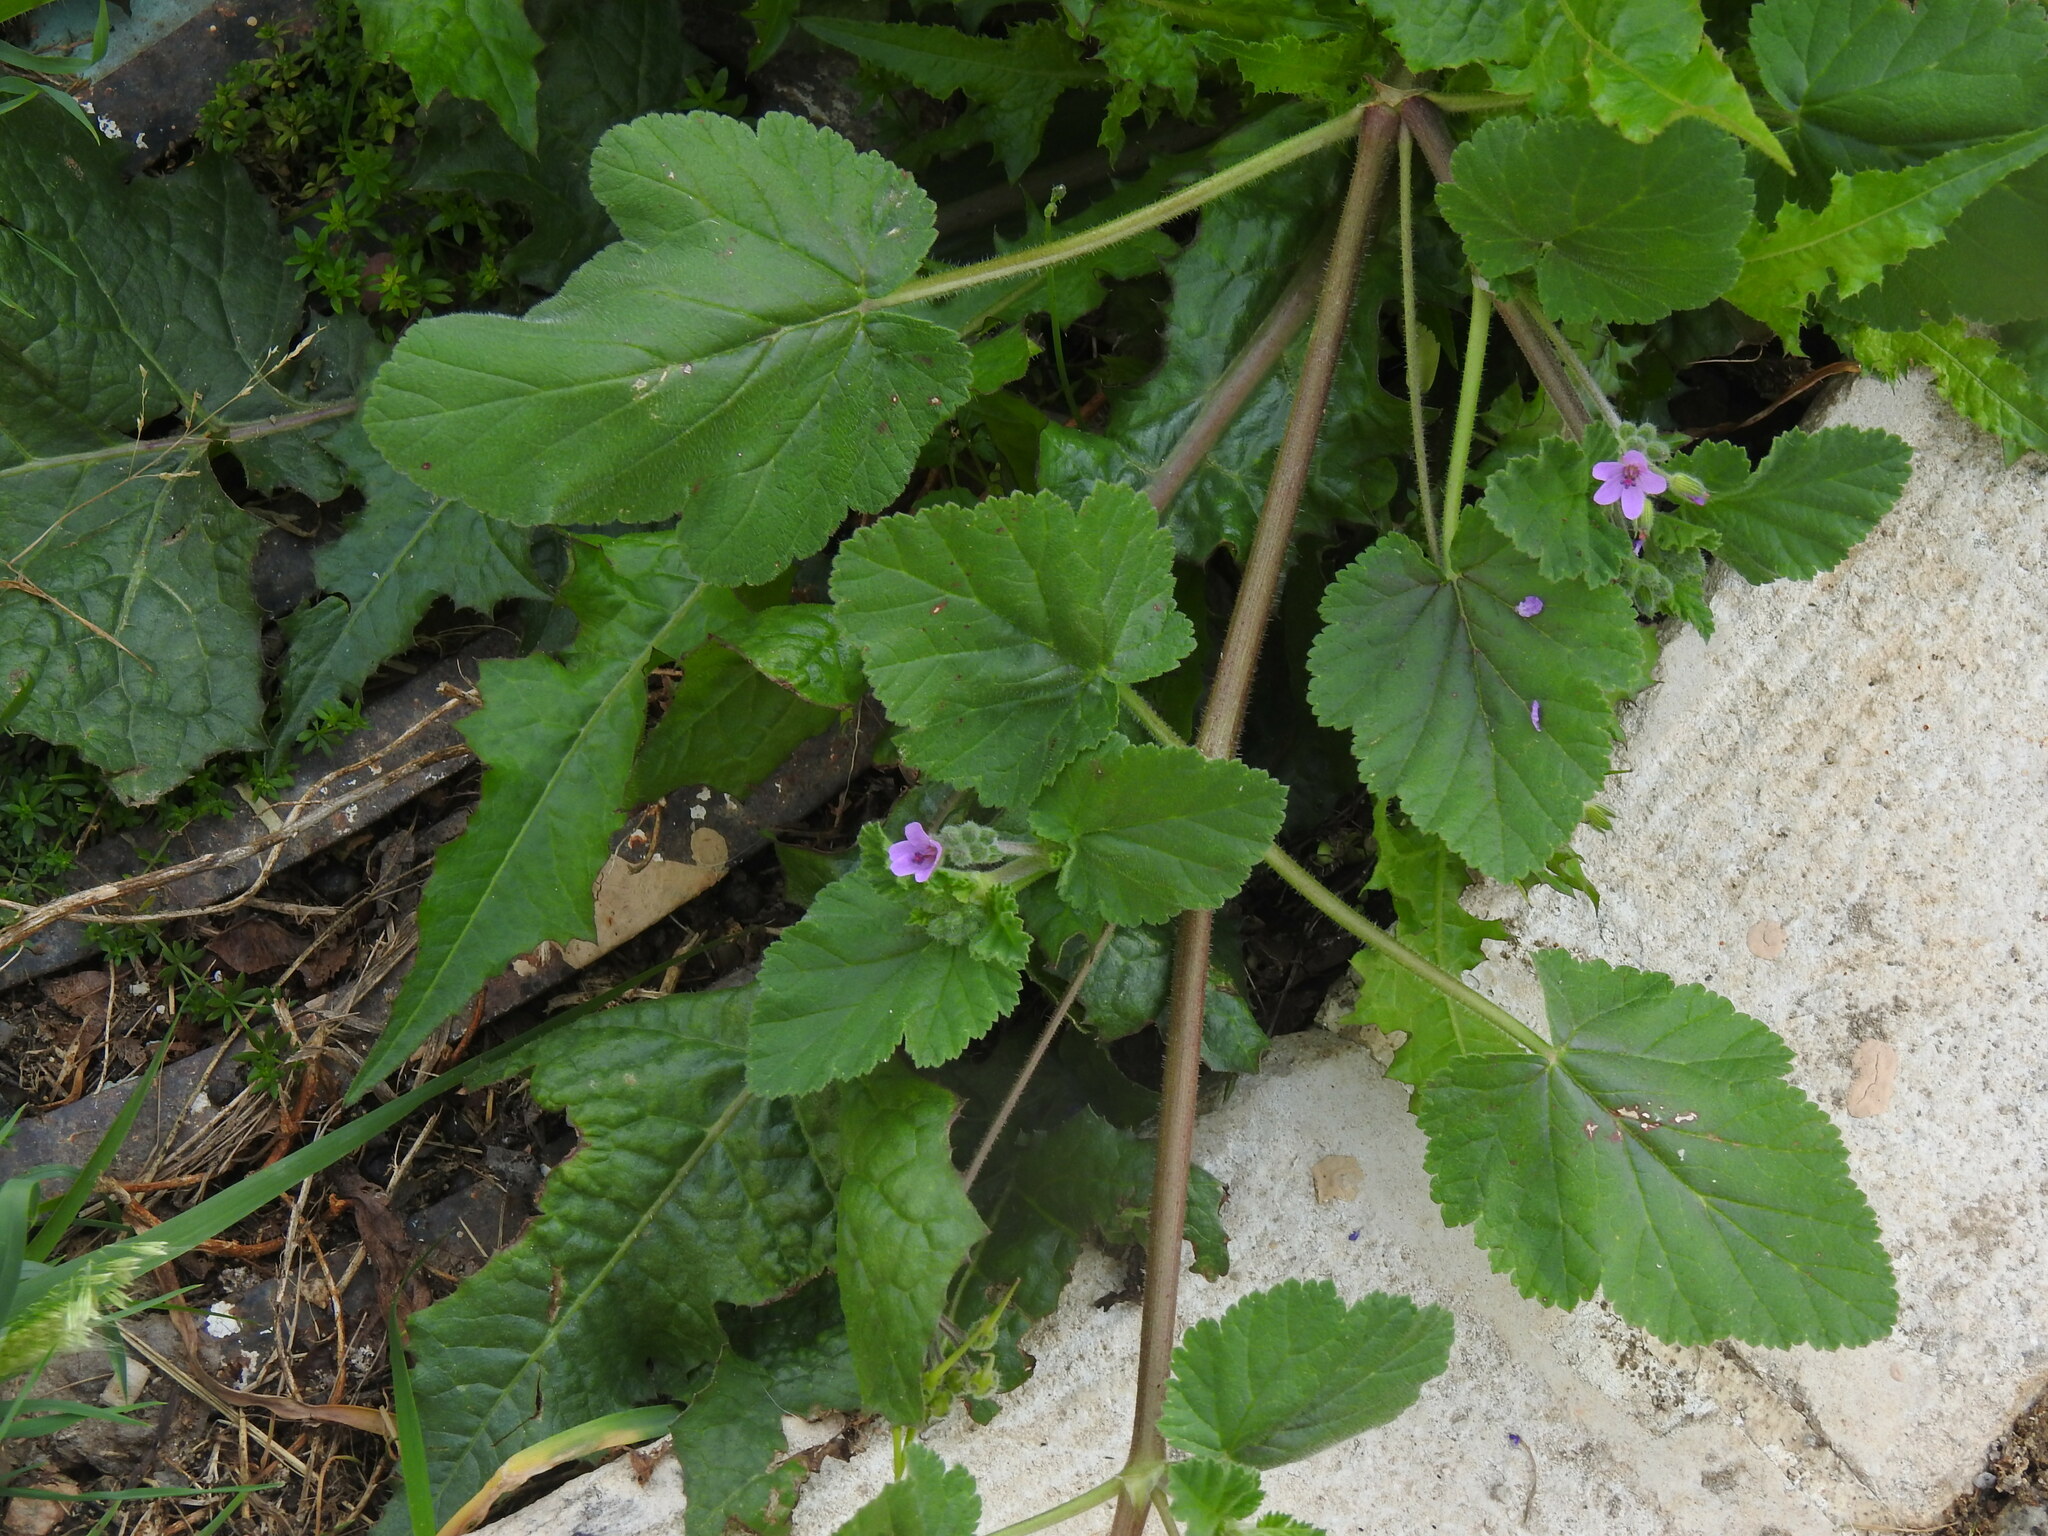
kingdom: Plantae
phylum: Tracheophyta
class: Magnoliopsida
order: Geraniales
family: Geraniaceae
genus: Erodium
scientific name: Erodium malacoides
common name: Soft stork's-bill
